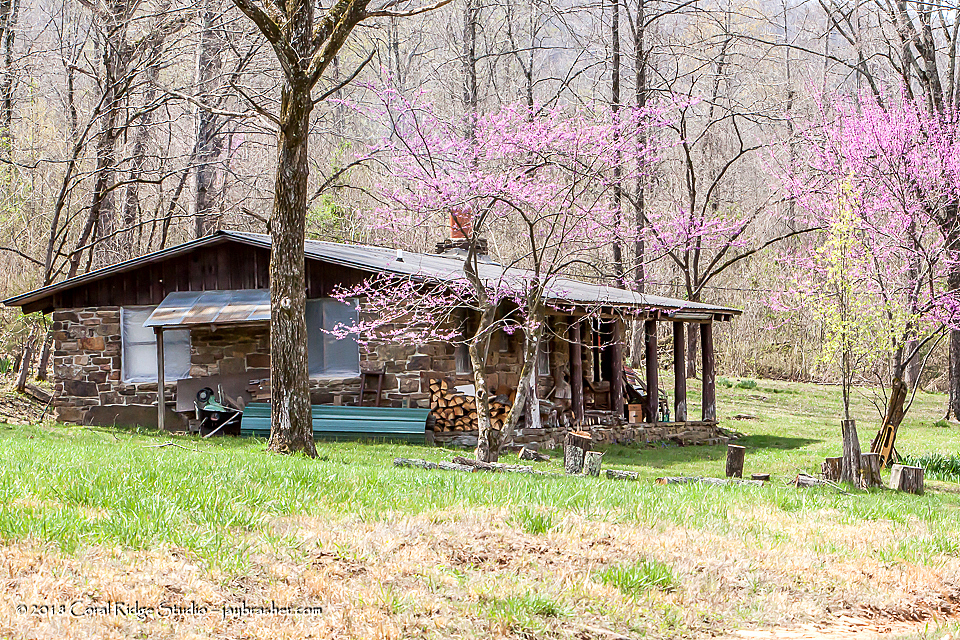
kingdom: Plantae
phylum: Tracheophyta
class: Magnoliopsida
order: Fabales
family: Fabaceae
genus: Cercis
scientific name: Cercis canadensis
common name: Eastern redbud
